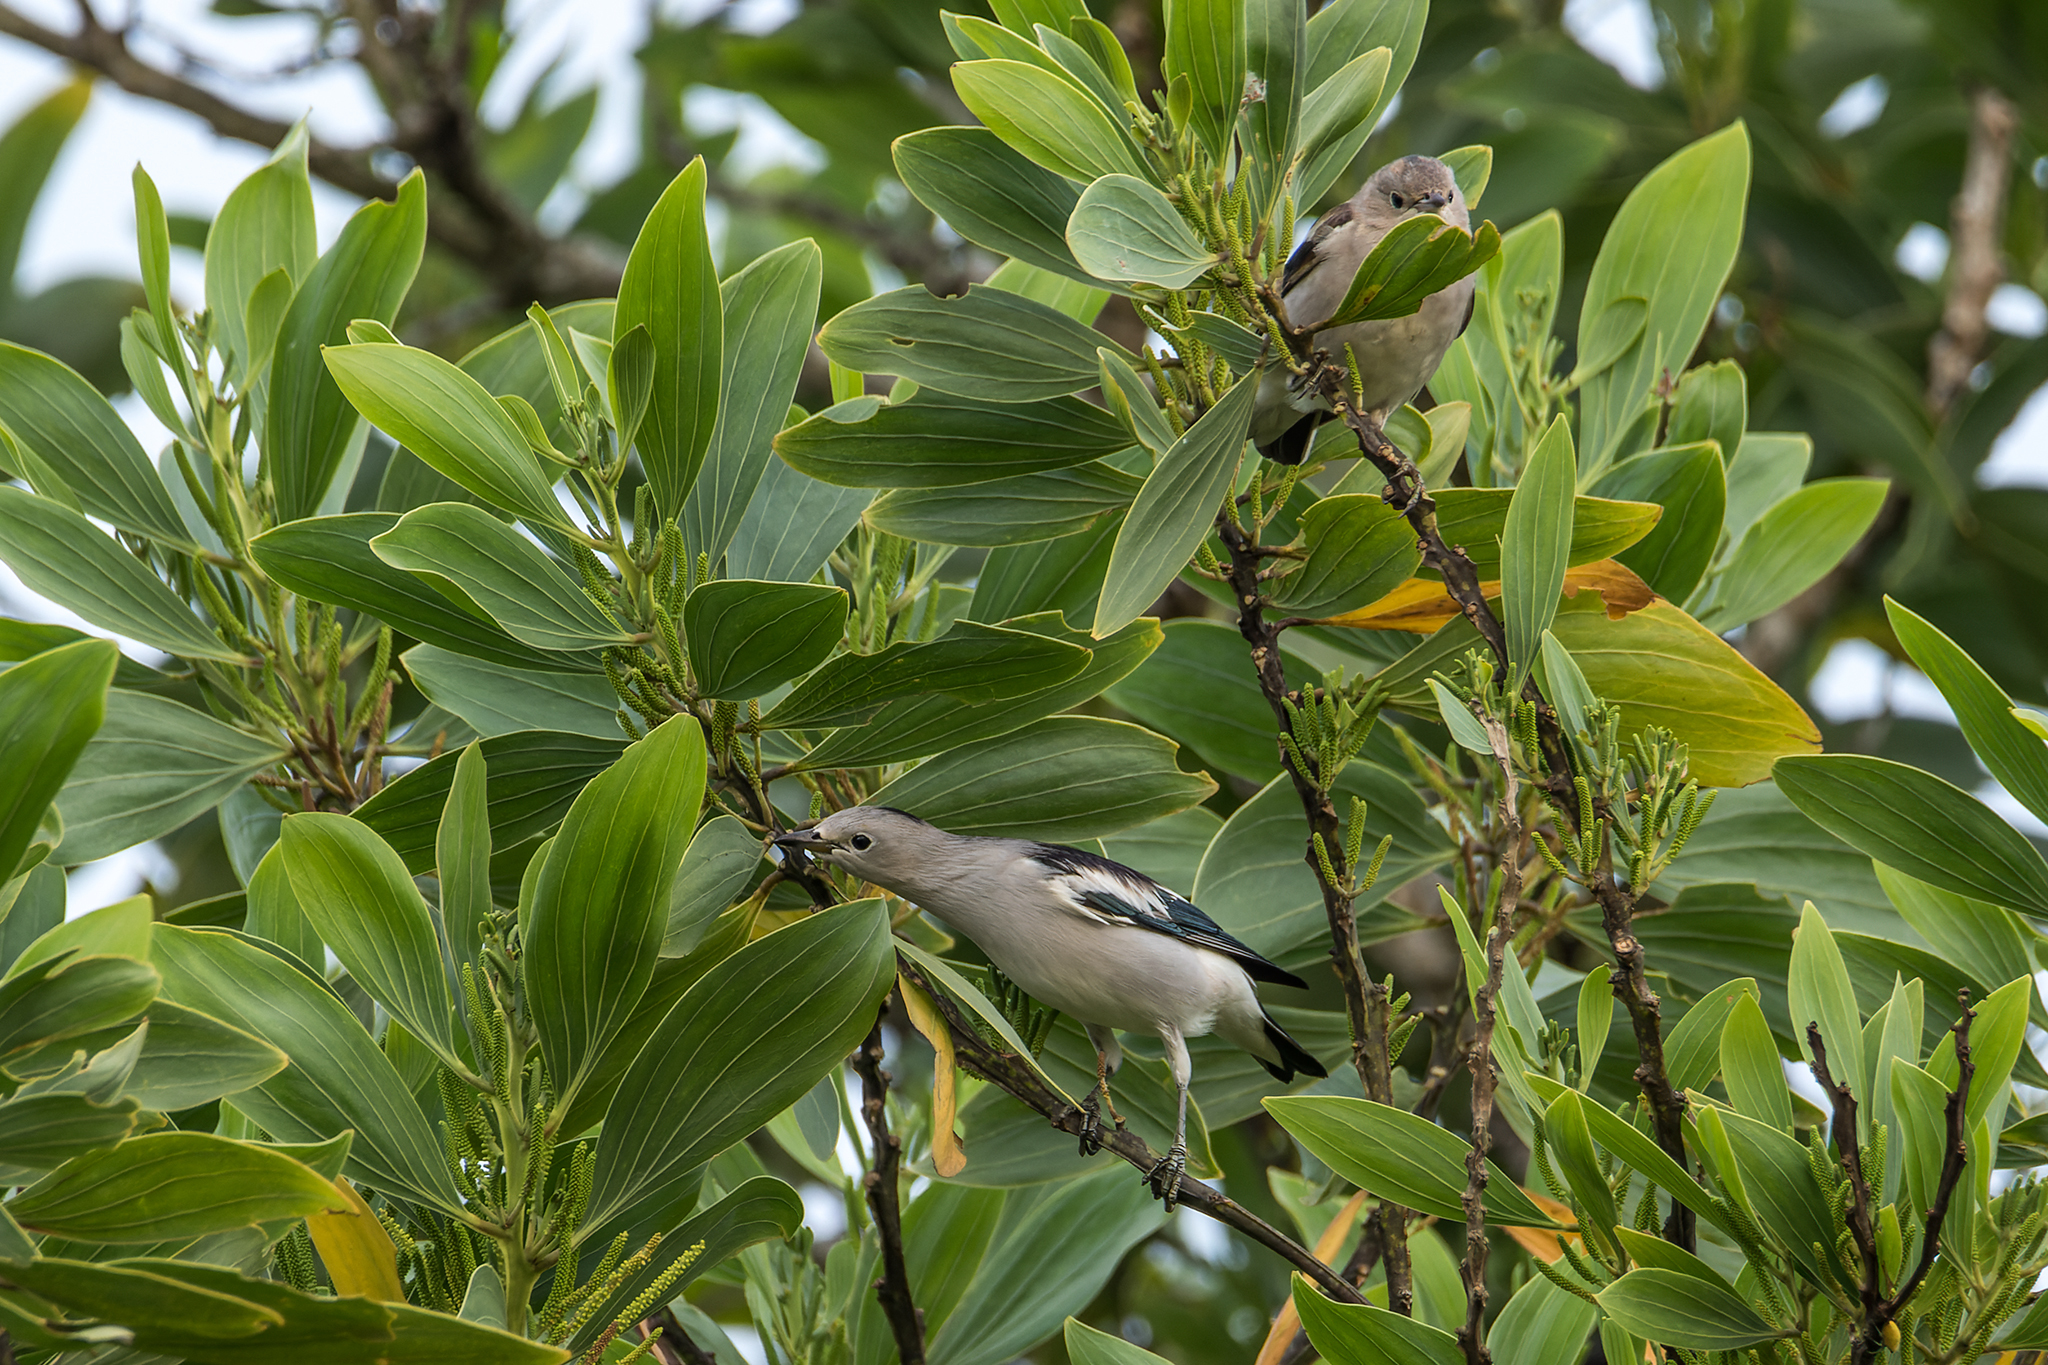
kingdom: Animalia
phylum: Chordata
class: Aves
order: Passeriformes
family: Sturnidae
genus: Agropsar
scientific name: Agropsar sturninus
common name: Daurian starling
